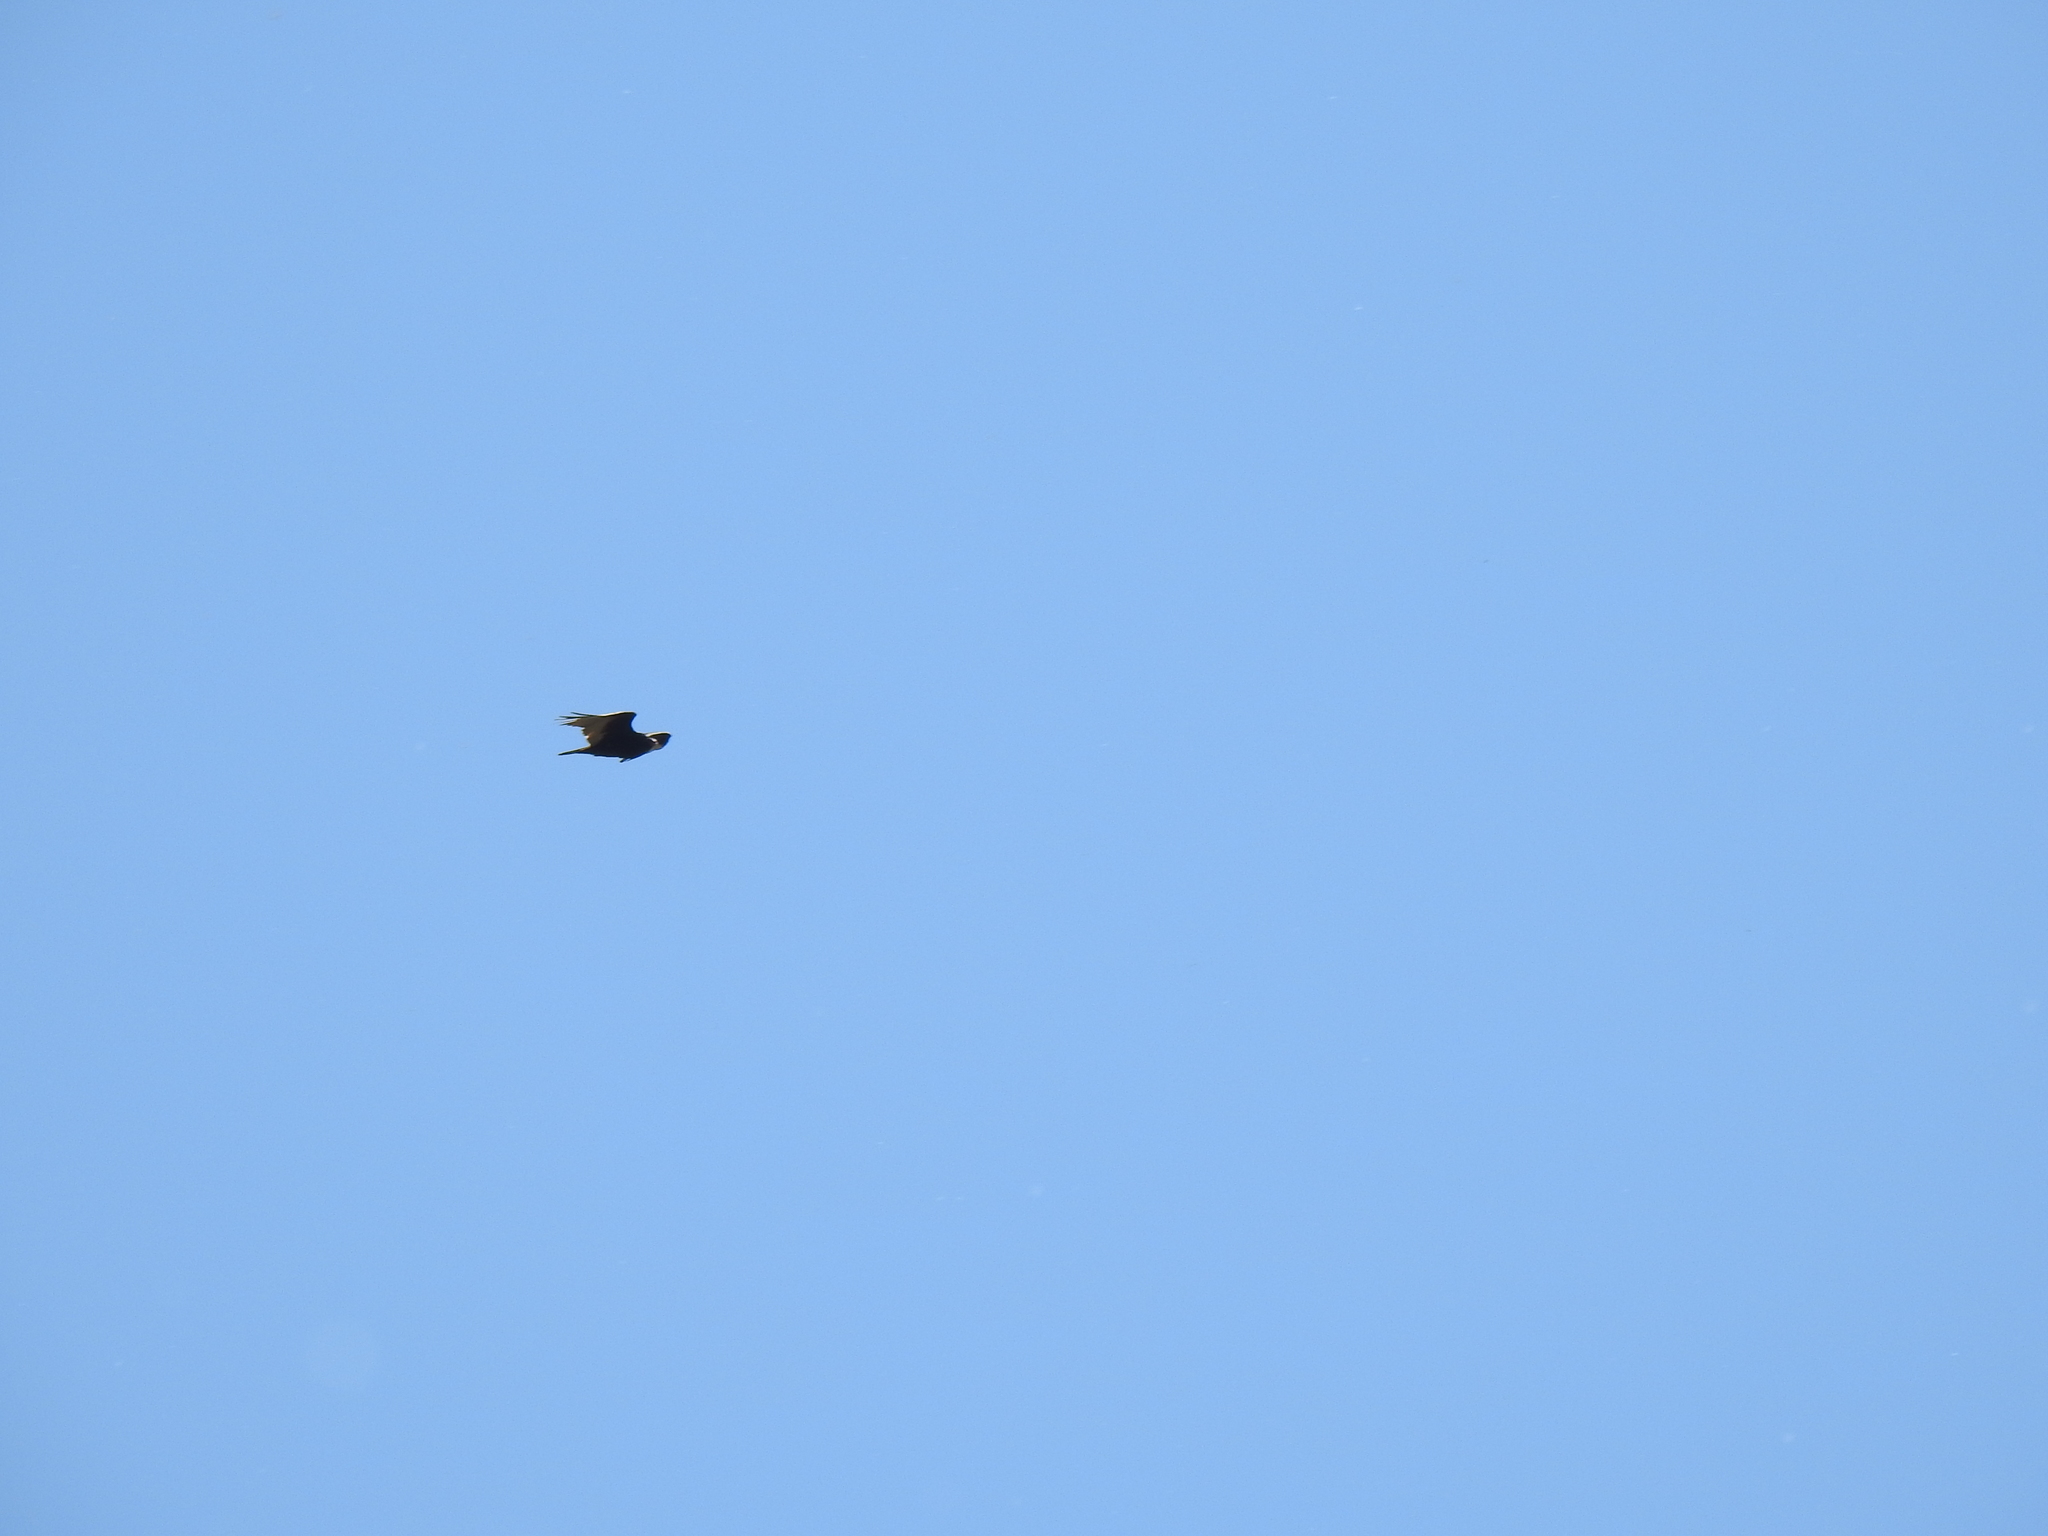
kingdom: Animalia
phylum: Chordata
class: Aves
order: Accipitriformes
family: Cathartidae
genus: Cathartes
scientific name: Cathartes aura
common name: Turkey vulture
